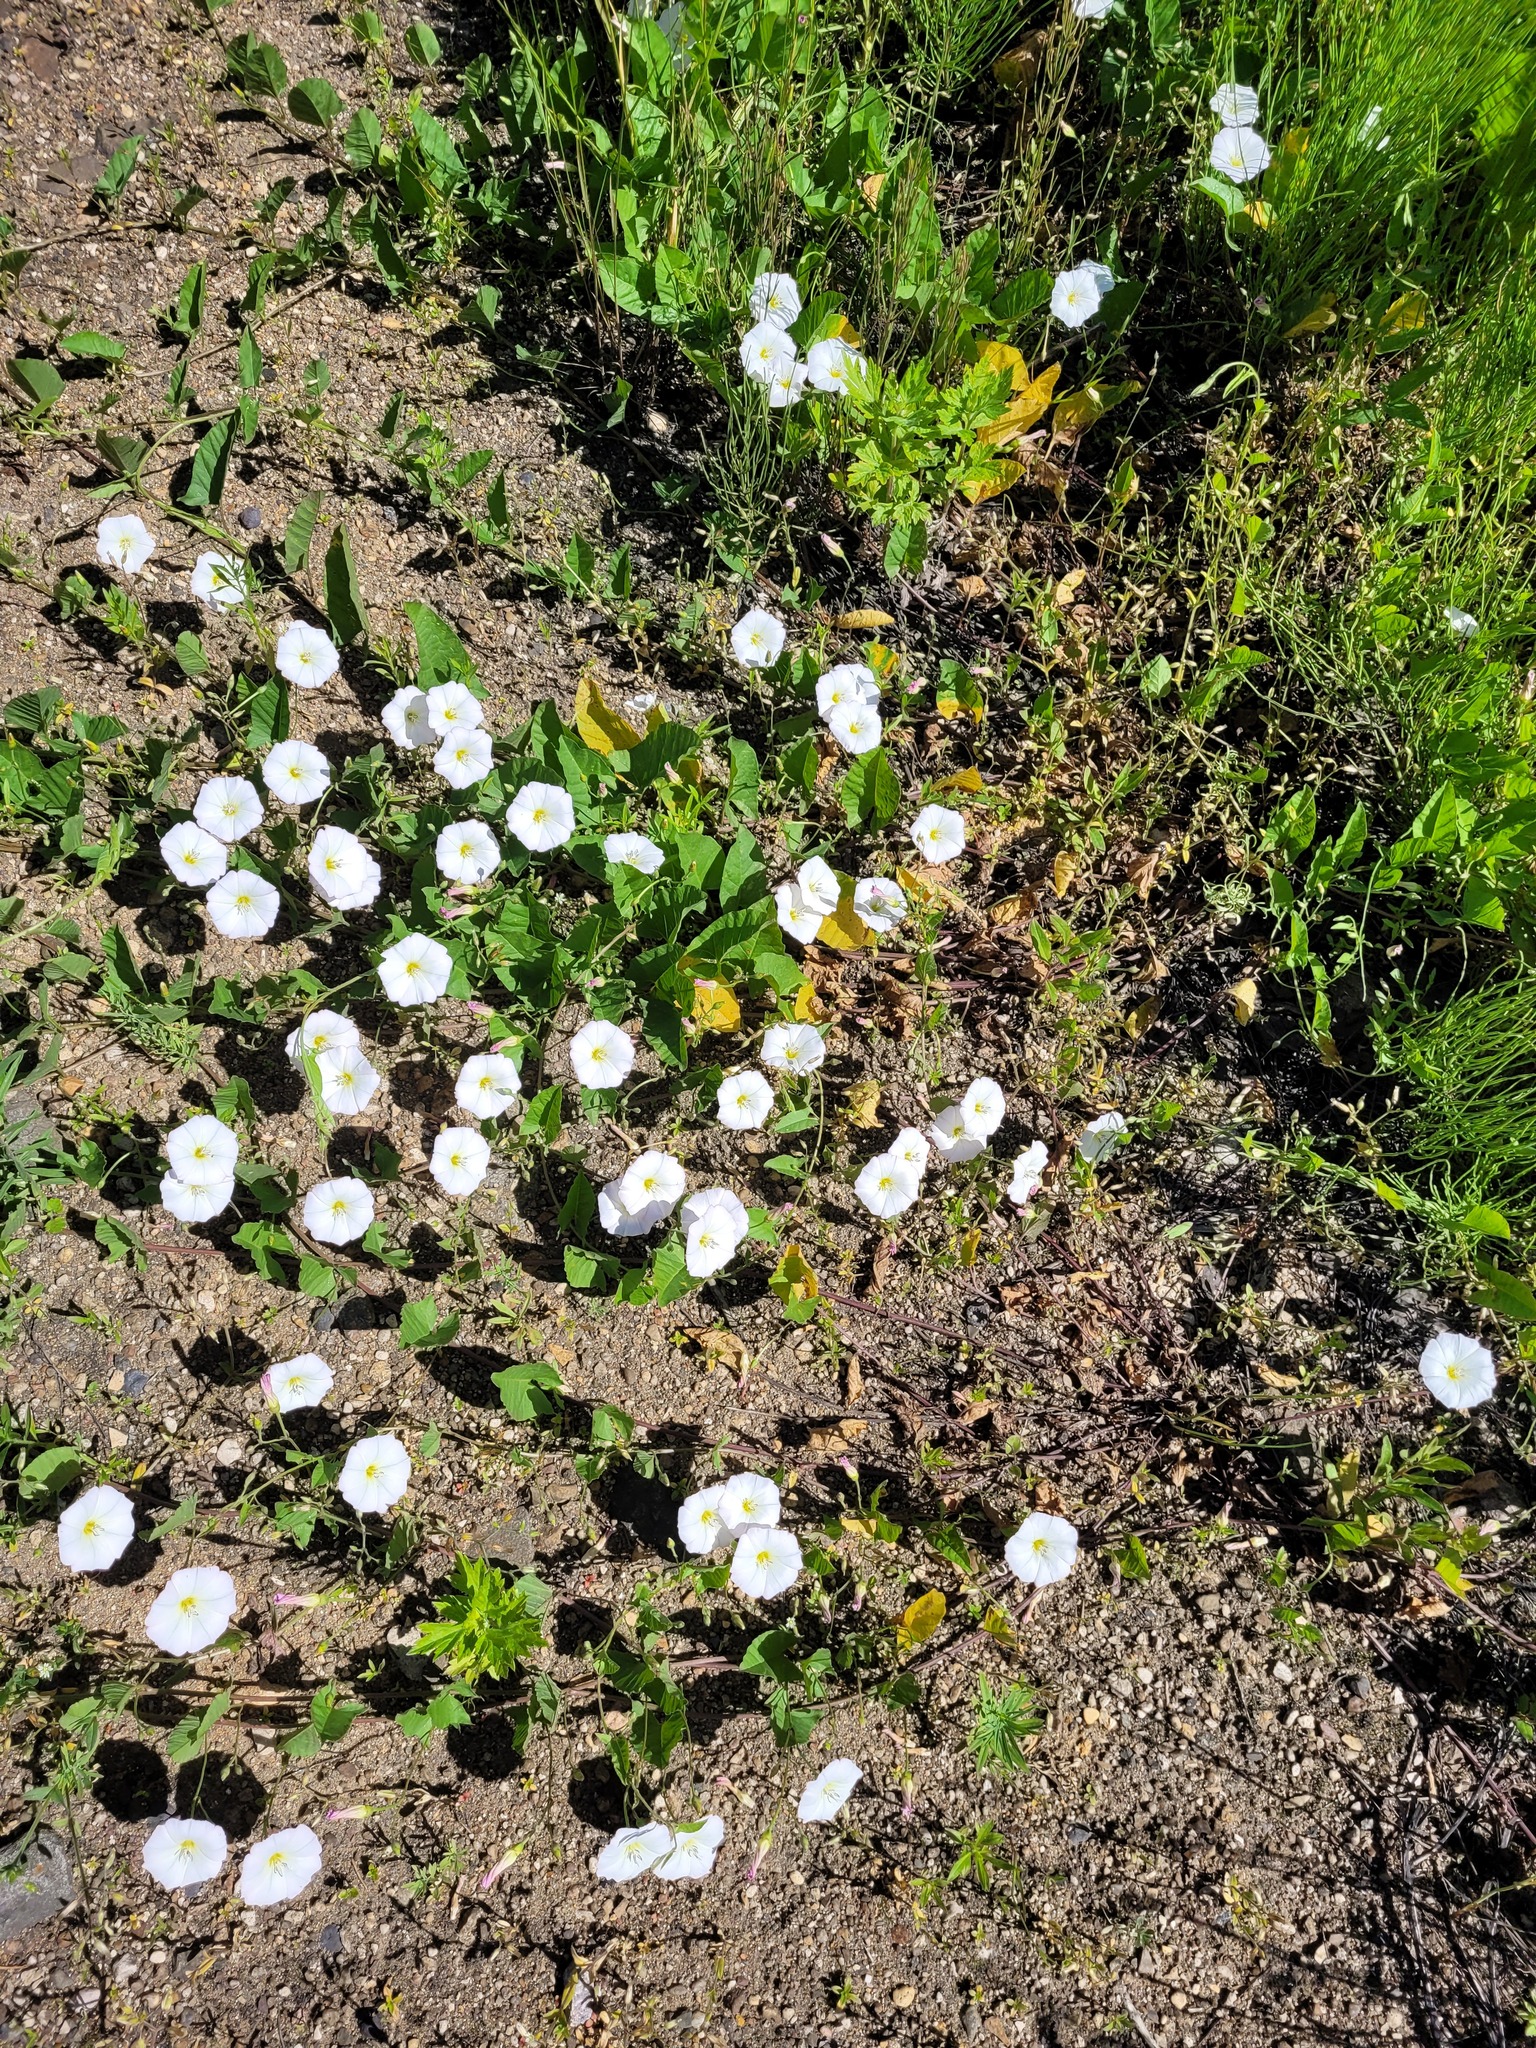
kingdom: Plantae
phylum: Tracheophyta
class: Magnoliopsida
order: Solanales
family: Convolvulaceae
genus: Convolvulus
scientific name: Convolvulus arvensis
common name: Field bindweed
